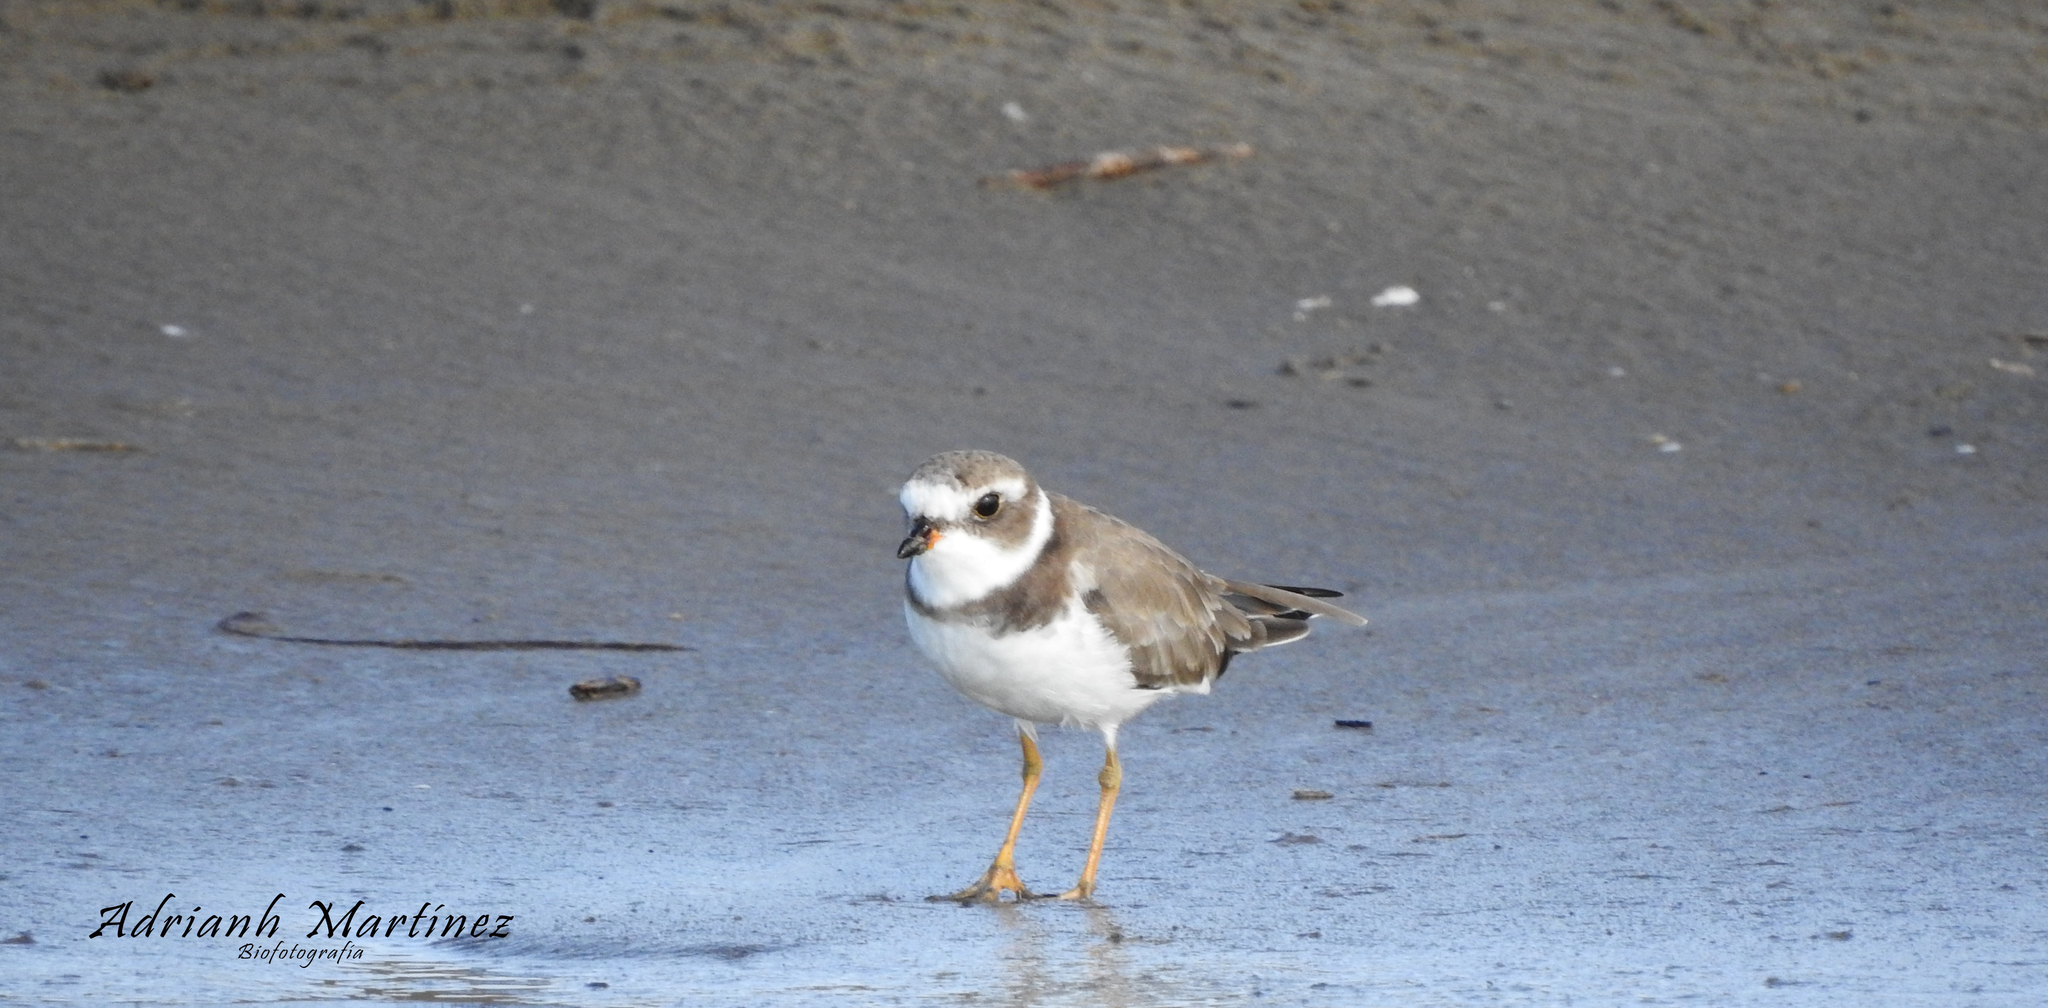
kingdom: Animalia
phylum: Chordata
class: Aves
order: Charadriiformes
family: Charadriidae
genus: Charadrius
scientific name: Charadrius semipalmatus
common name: Semipalmated plover
